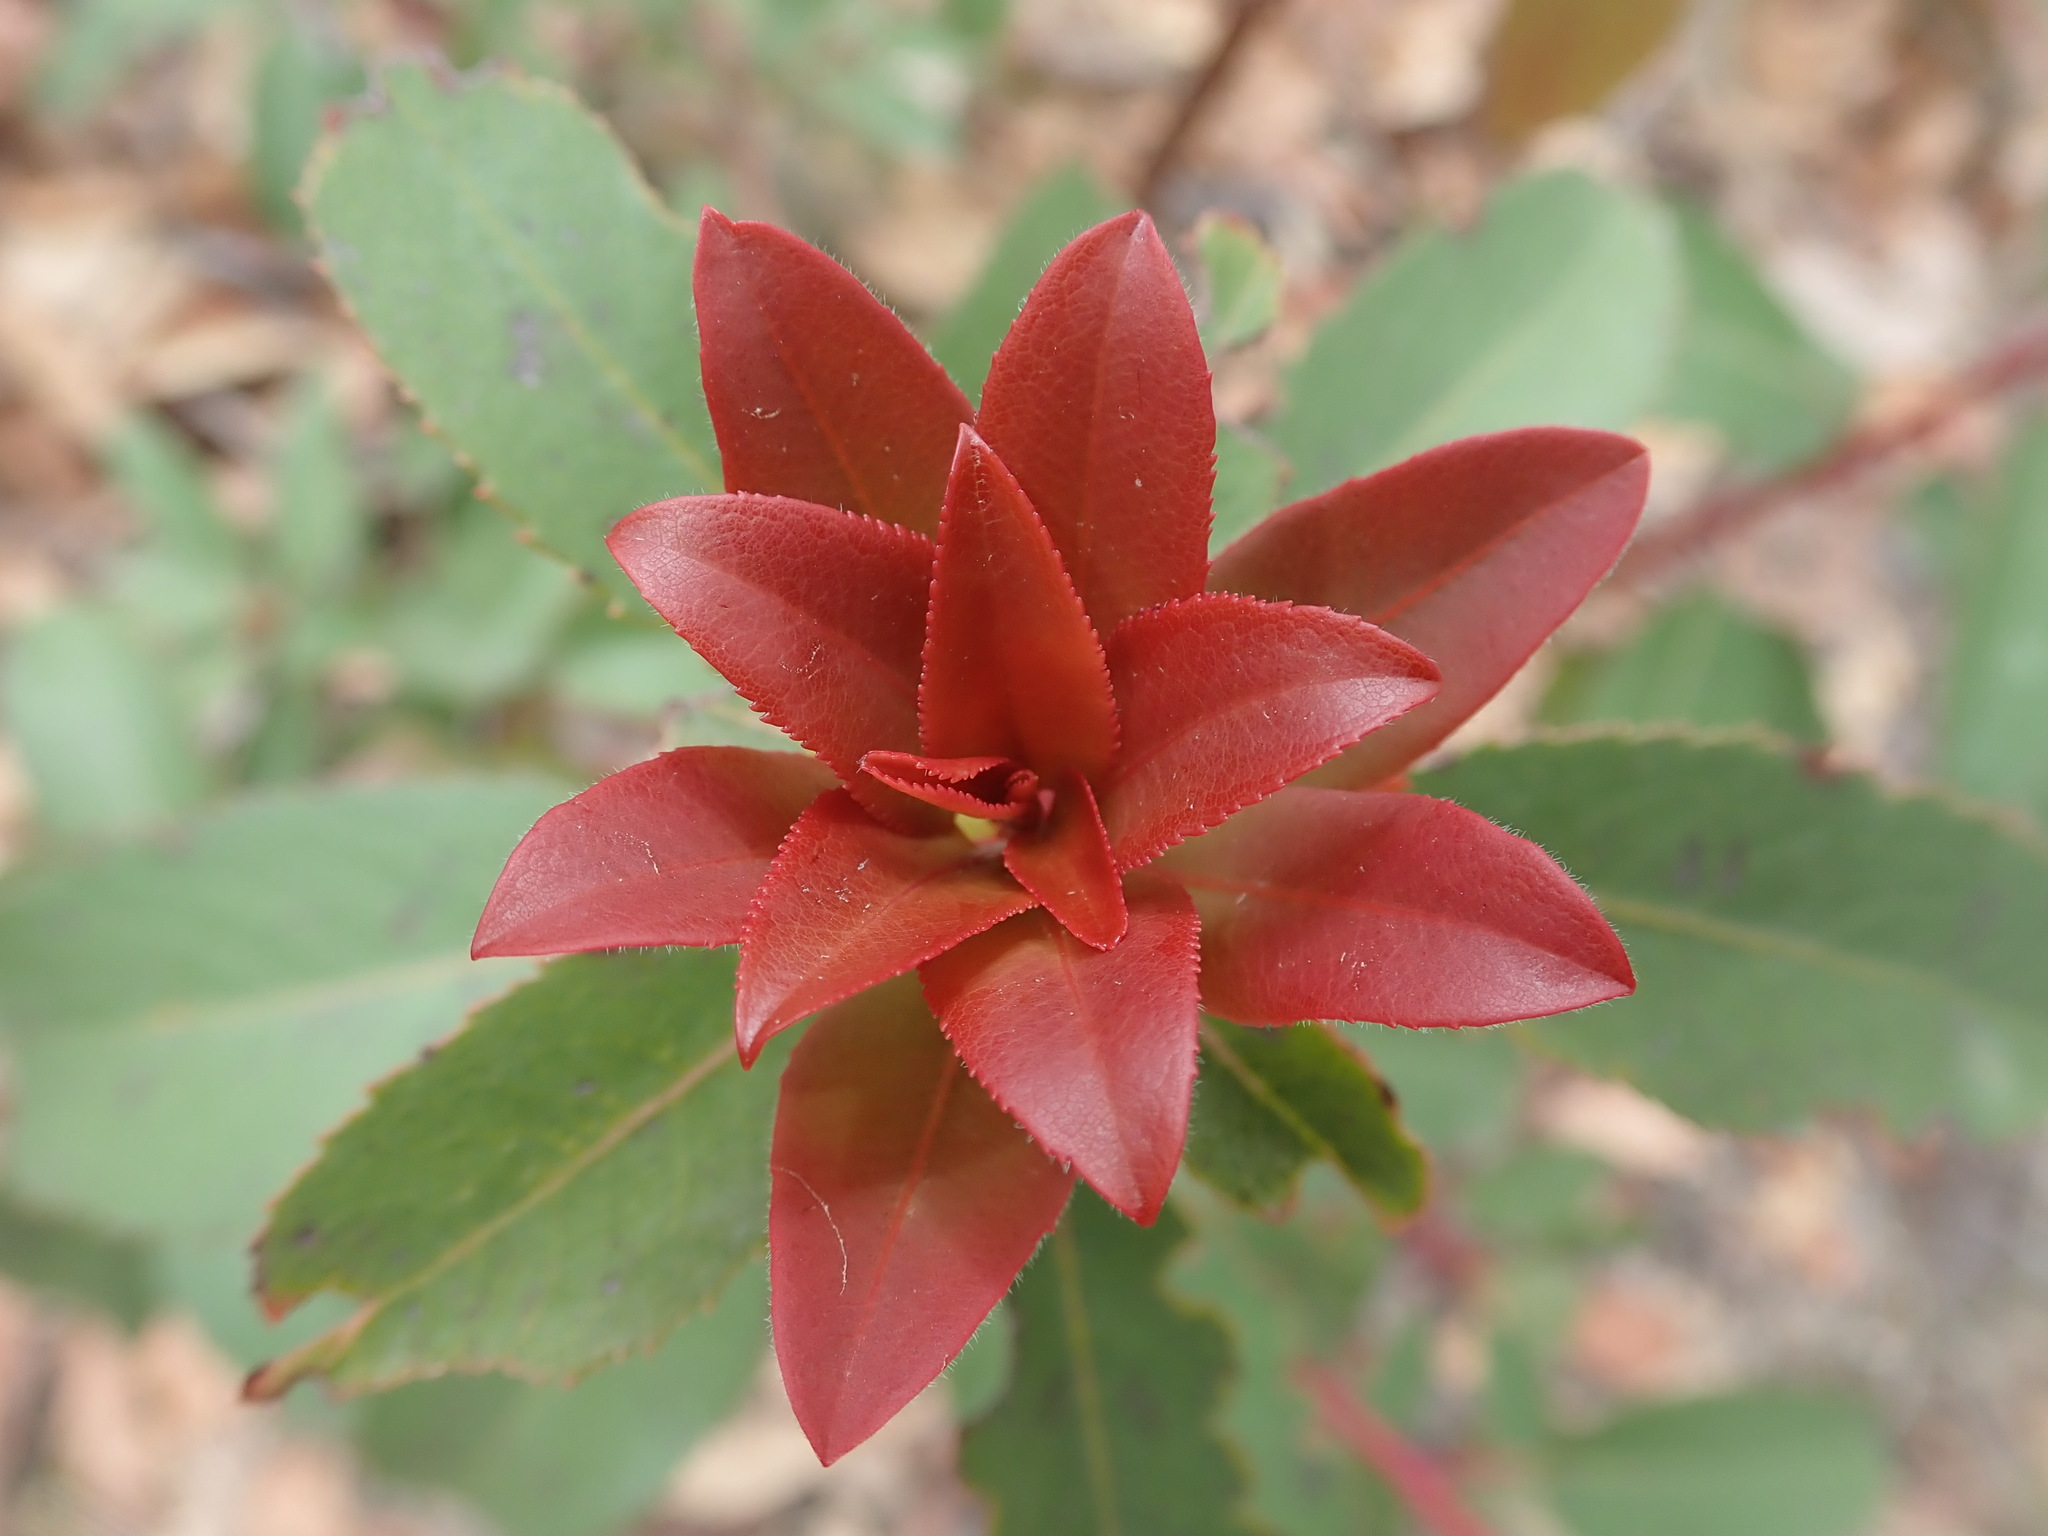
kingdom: Plantae
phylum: Tracheophyta
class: Magnoliopsida
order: Ericales
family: Ericaceae
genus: Arbutus
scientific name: Arbutus arizonica
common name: Arizona madrone
